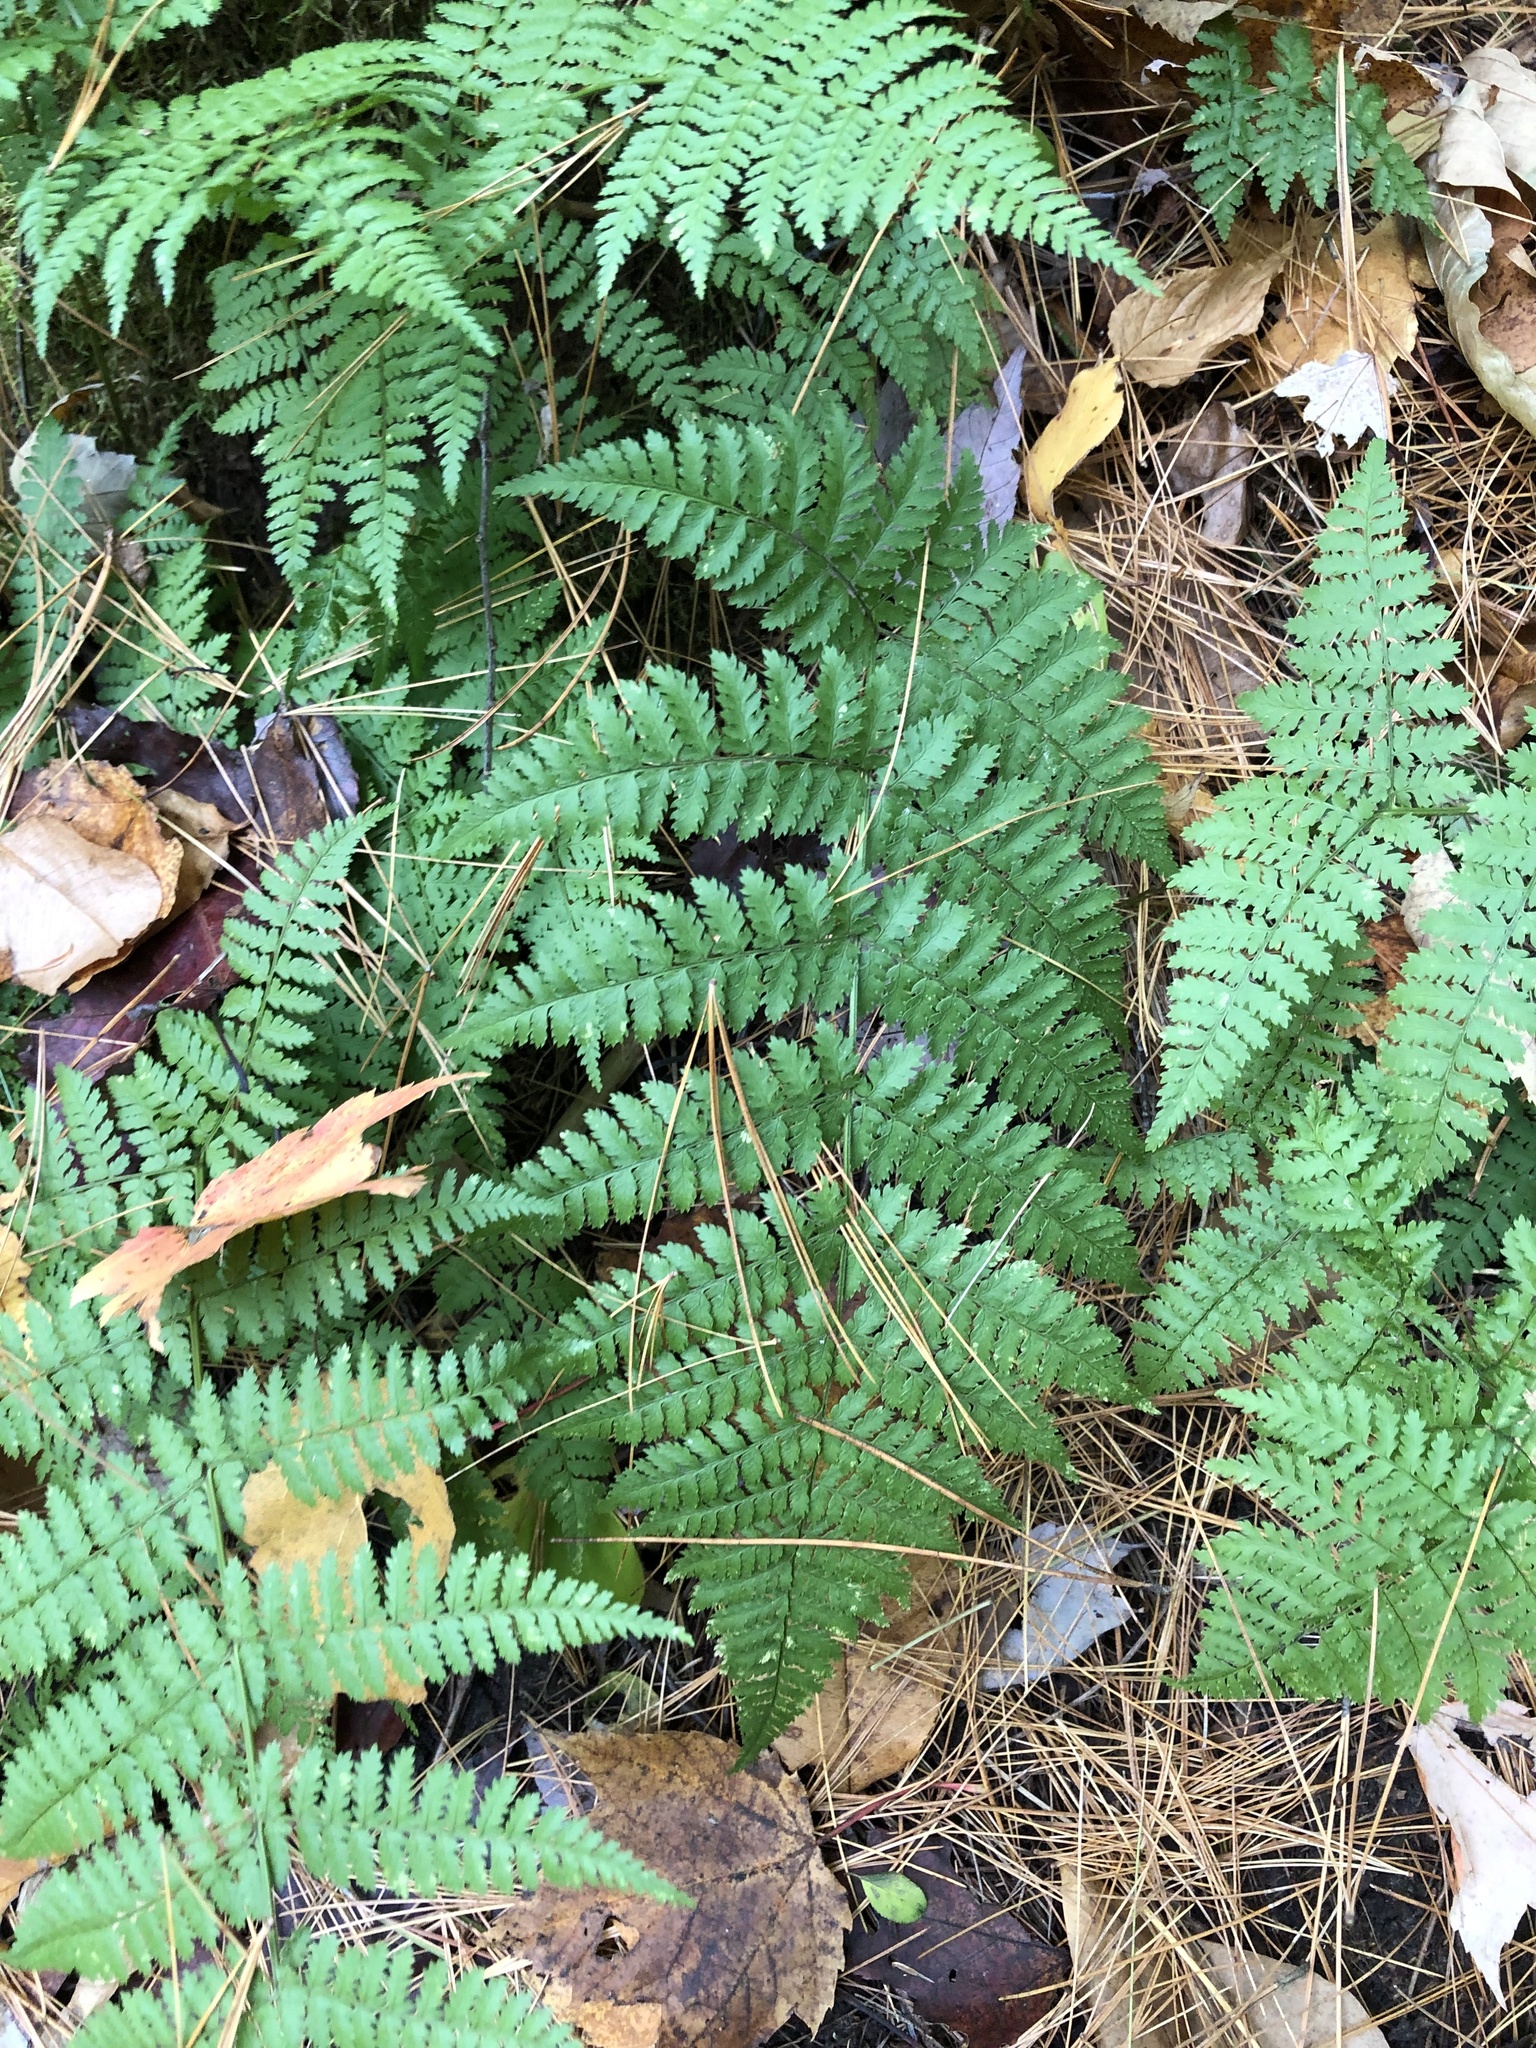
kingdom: Plantae
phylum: Tracheophyta
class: Polypodiopsida
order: Polypodiales
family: Dryopteridaceae
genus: Dryopteris
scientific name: Dryopteris intermedia
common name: Evergreen wood fern
